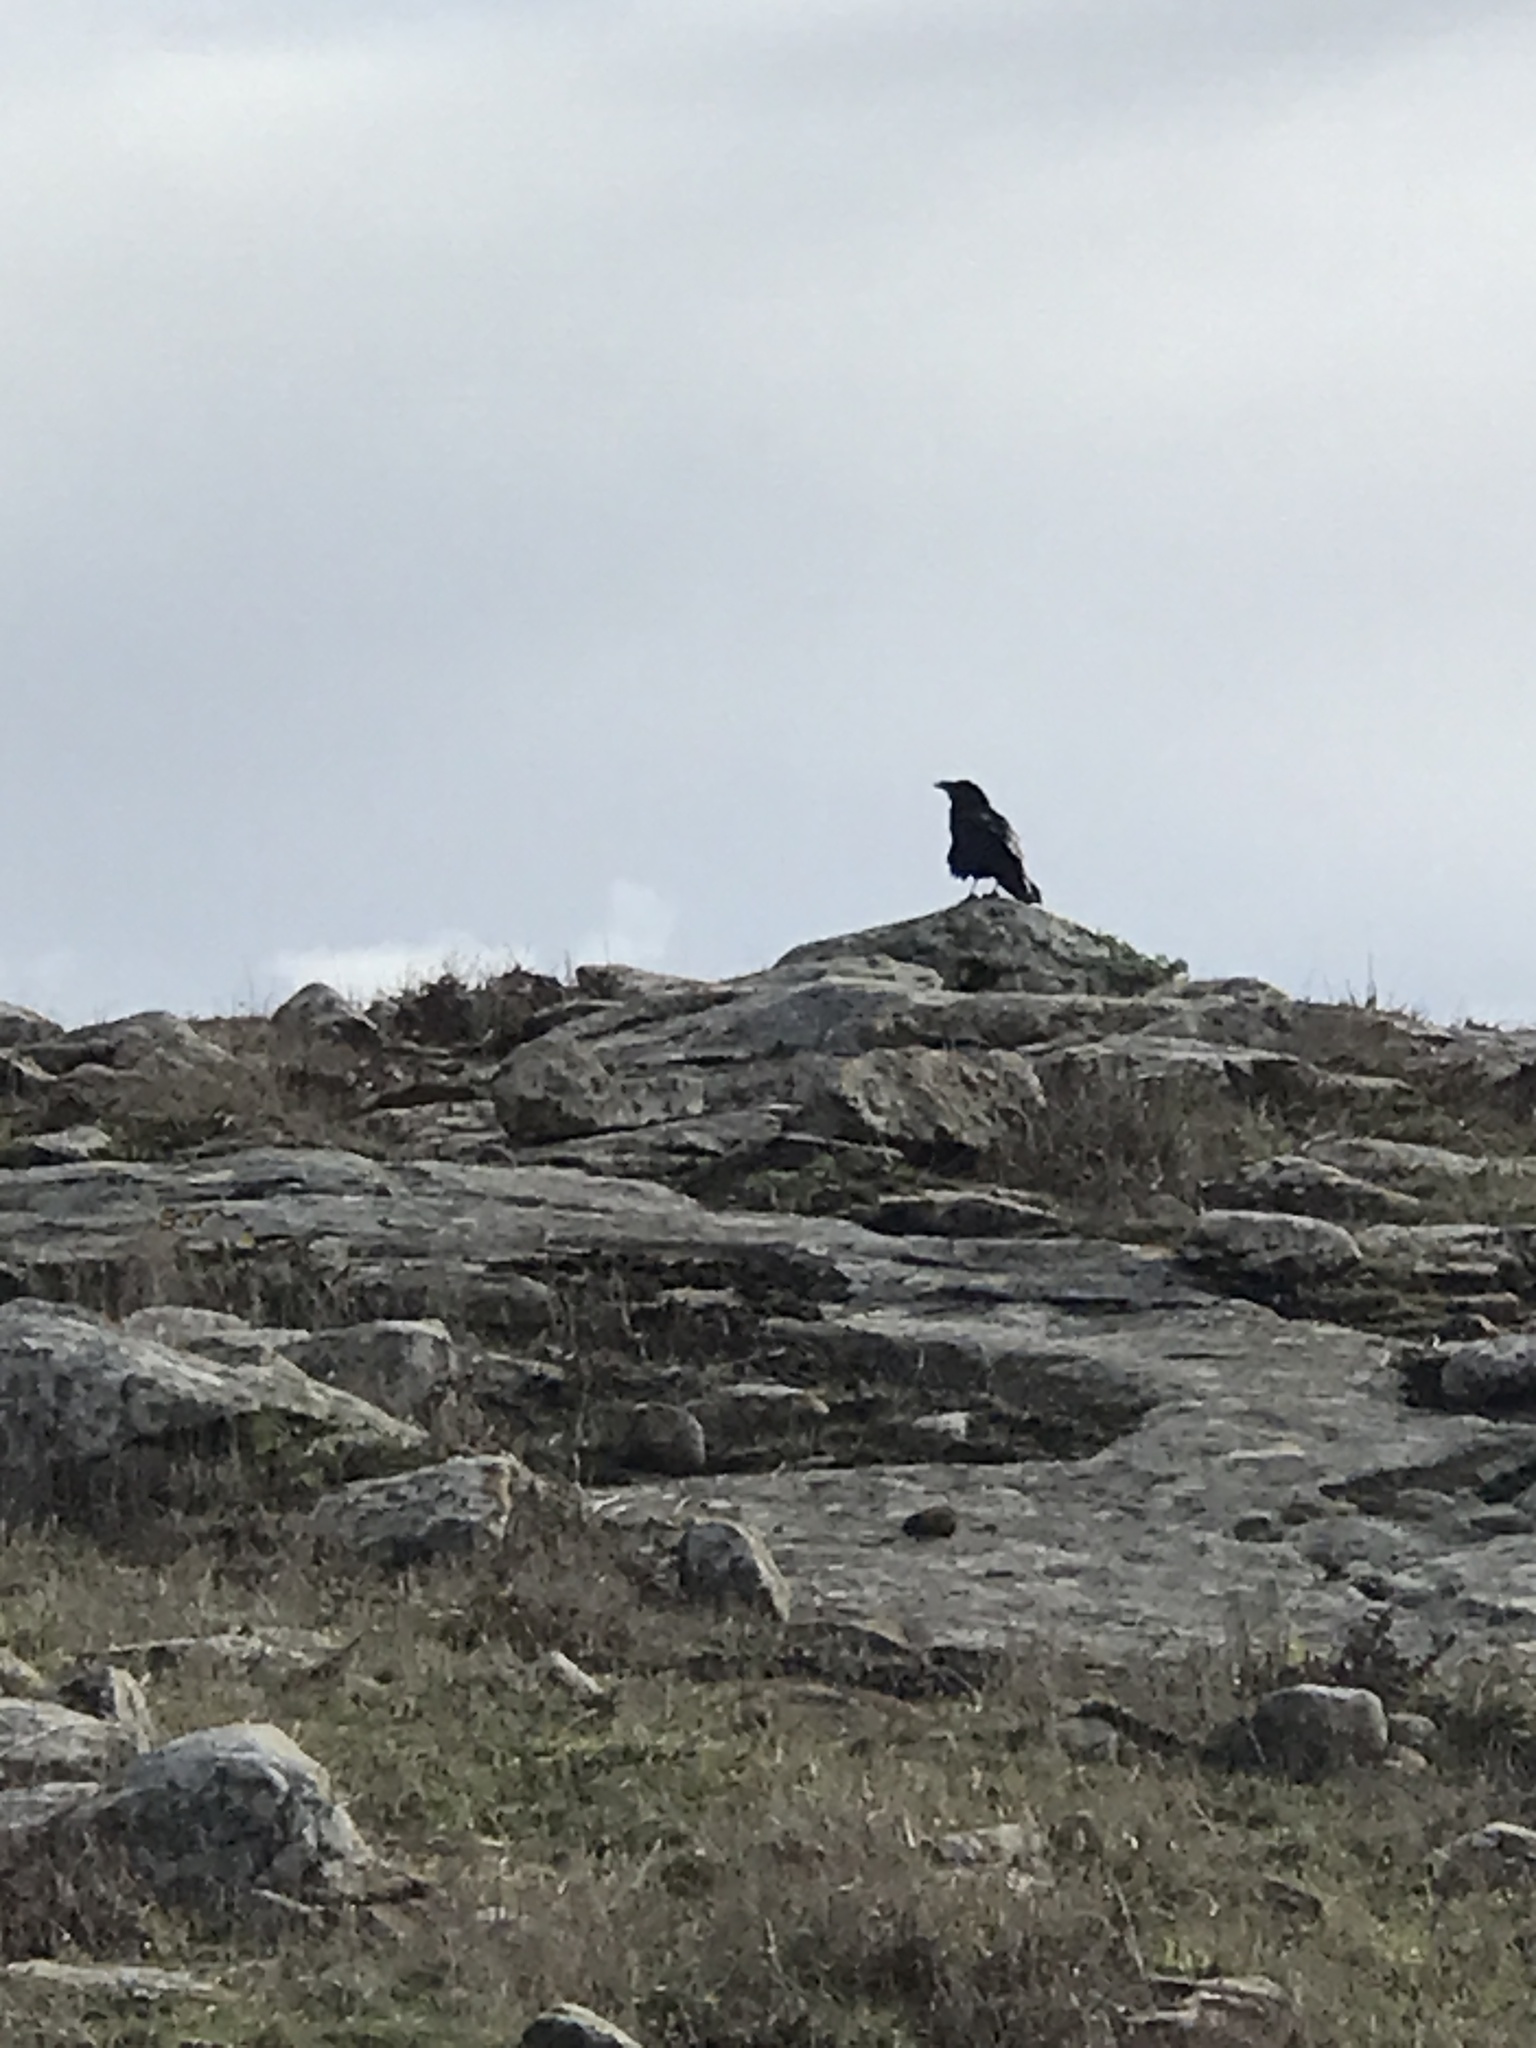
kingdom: Animalia
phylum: Chordata
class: Aves
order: Passeriformes
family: Corvidae
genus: Corvus
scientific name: Corvus corax
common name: Common raven
